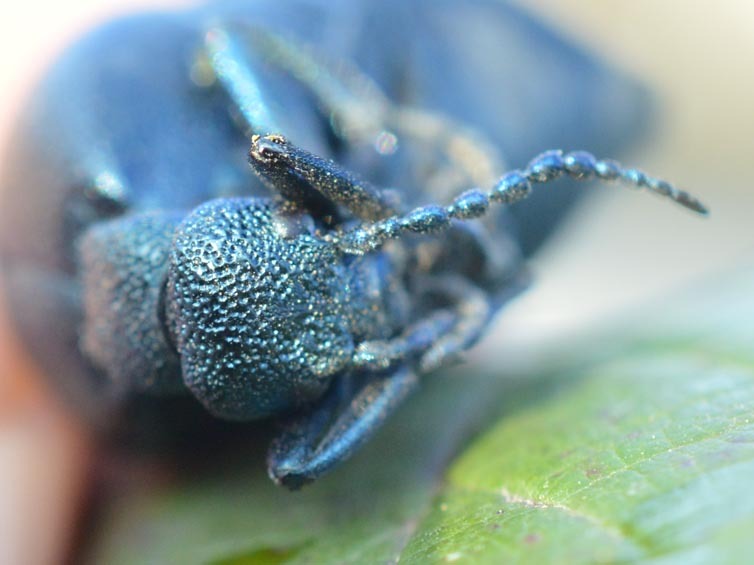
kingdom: Animalia
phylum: Arthropoda
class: Insecta
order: Coleoptera
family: Meloidae
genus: Meloe
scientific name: Meloe proscarabaeus
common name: Black oil-beetle
